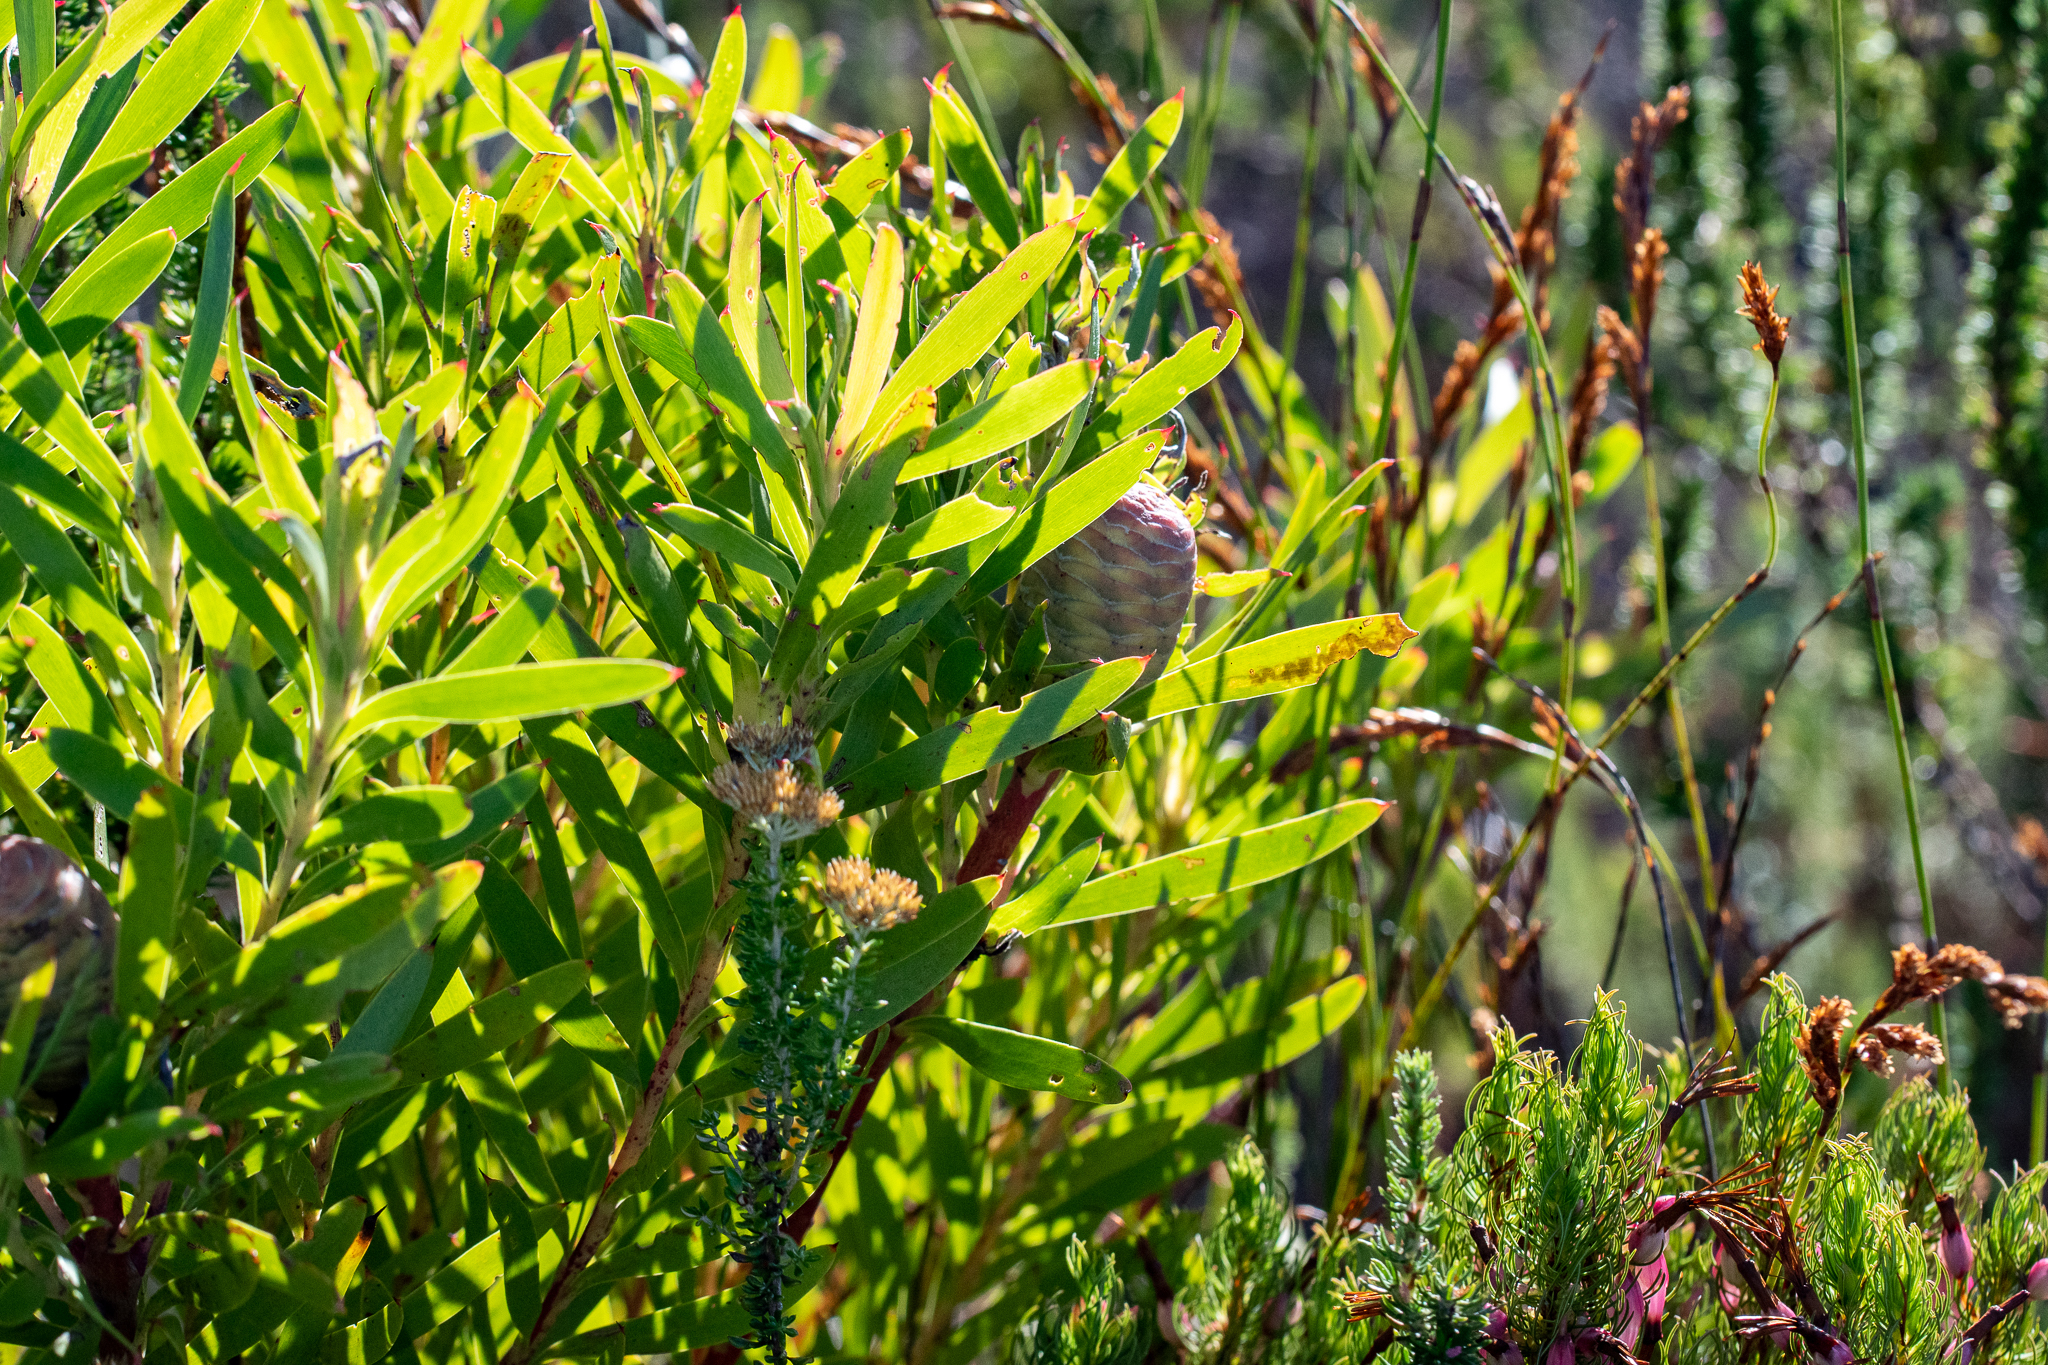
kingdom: Plantae
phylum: Tracheophyta
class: Magnoliopsida
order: Proteales
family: Proteaceae
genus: Leucadendron
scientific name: Leucadendron meridianum
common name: Limestone conebush
